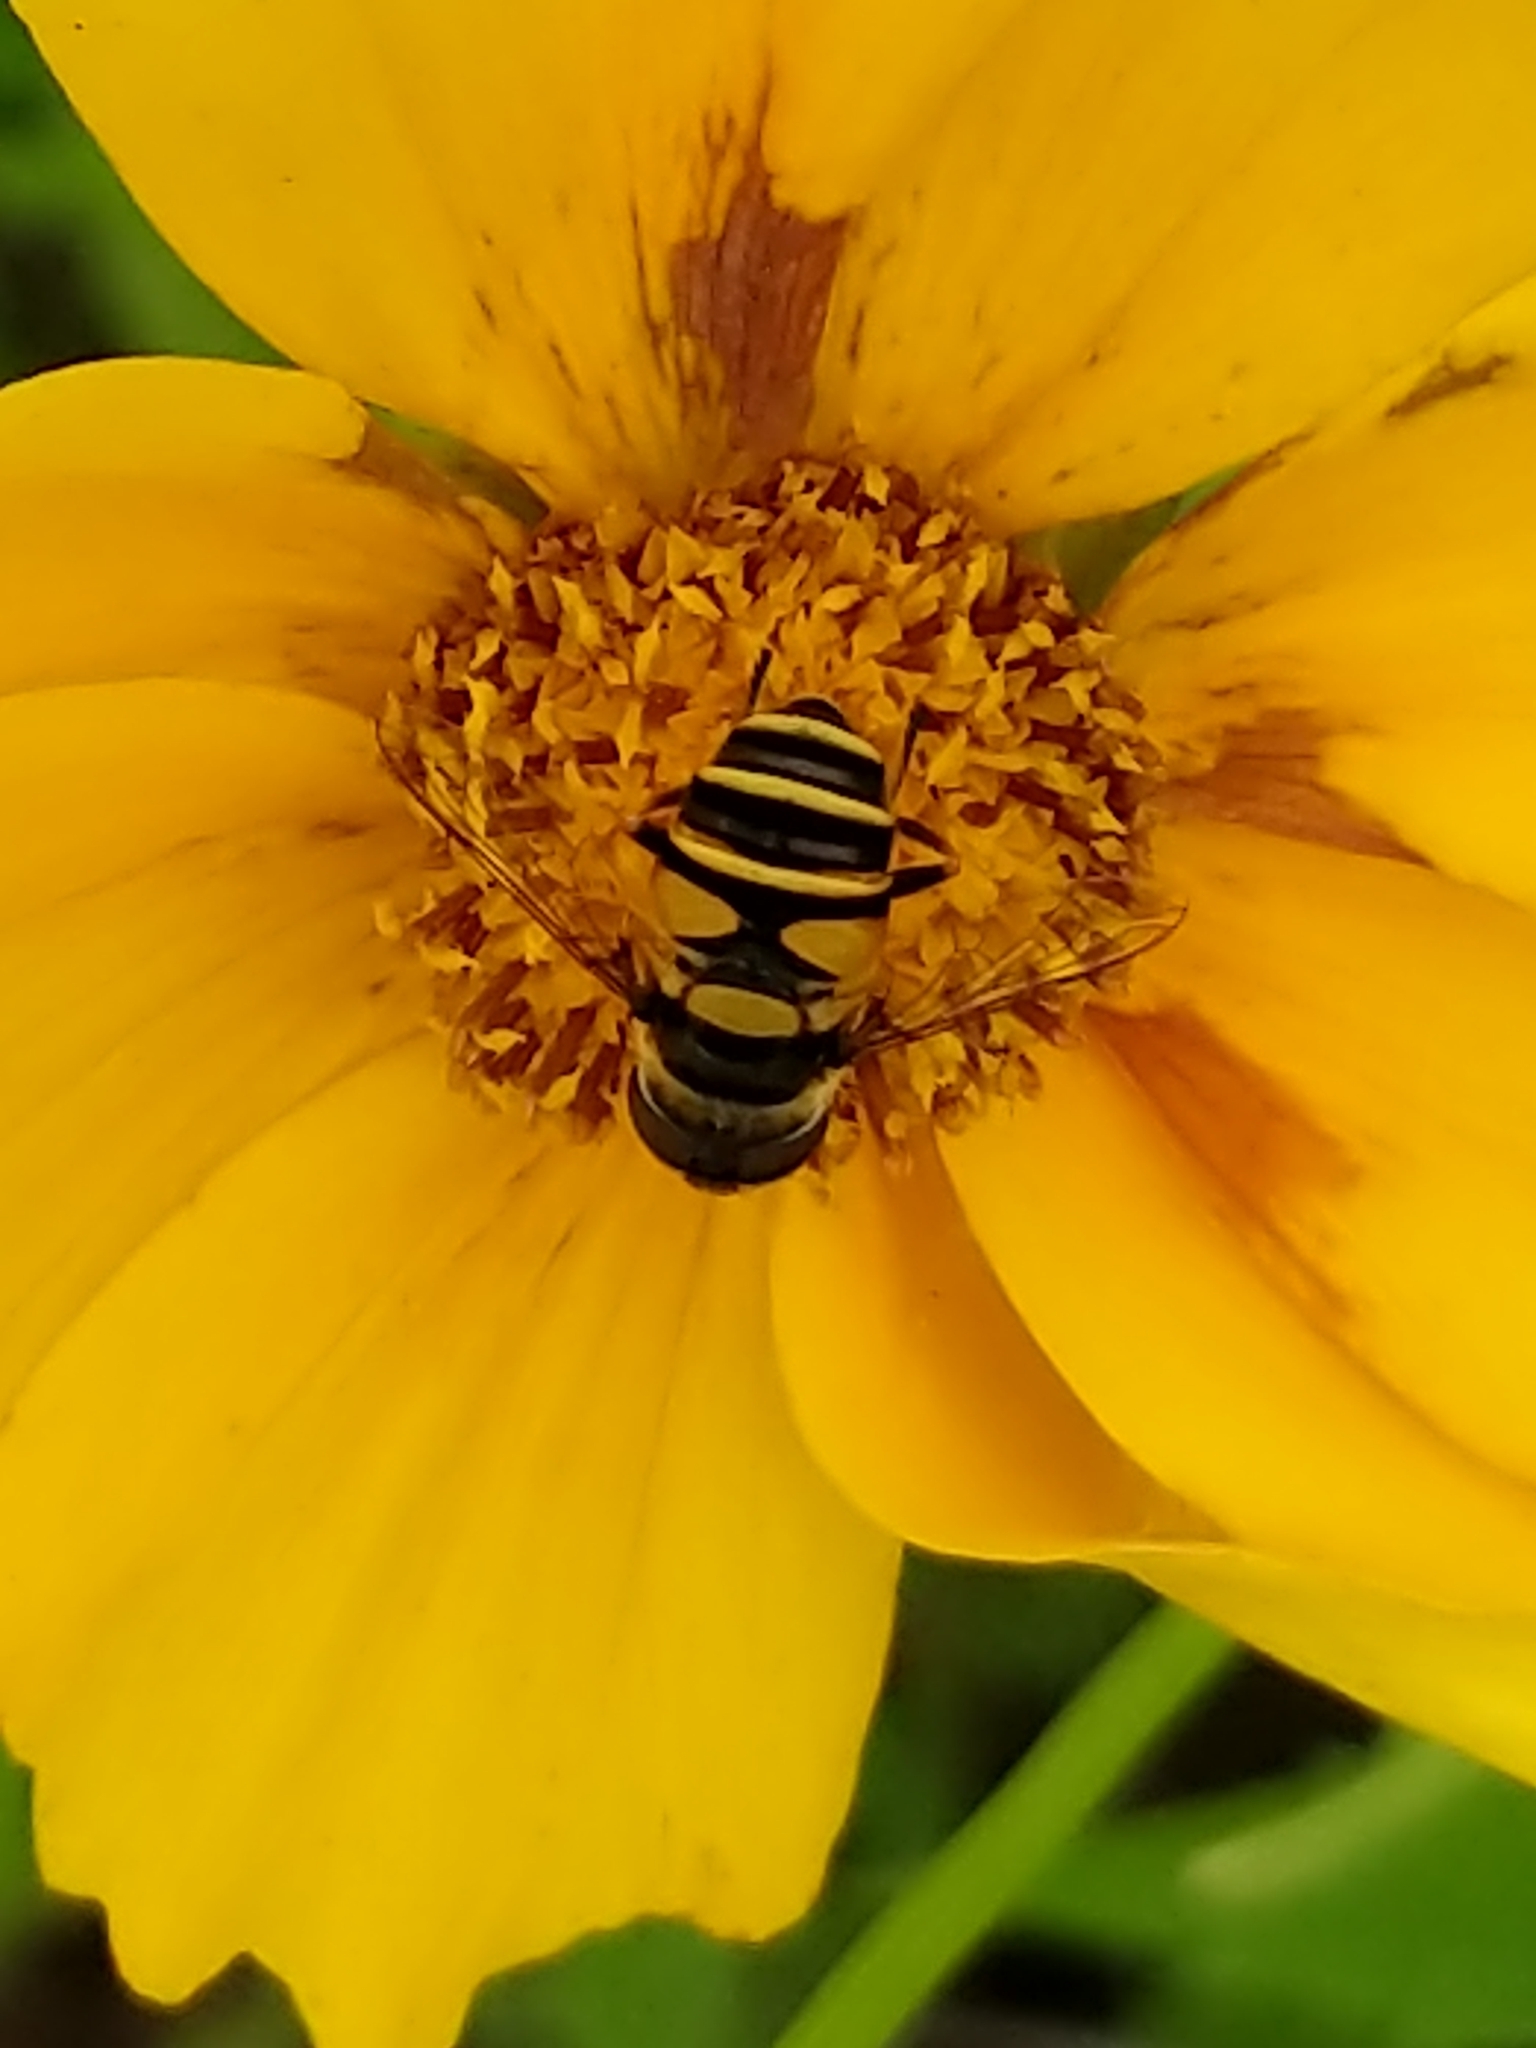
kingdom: Animalia
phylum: Arthropoda
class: Insecta
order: Diptera
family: Syrphidae
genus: Eristalis
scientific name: Eristalis transversa
